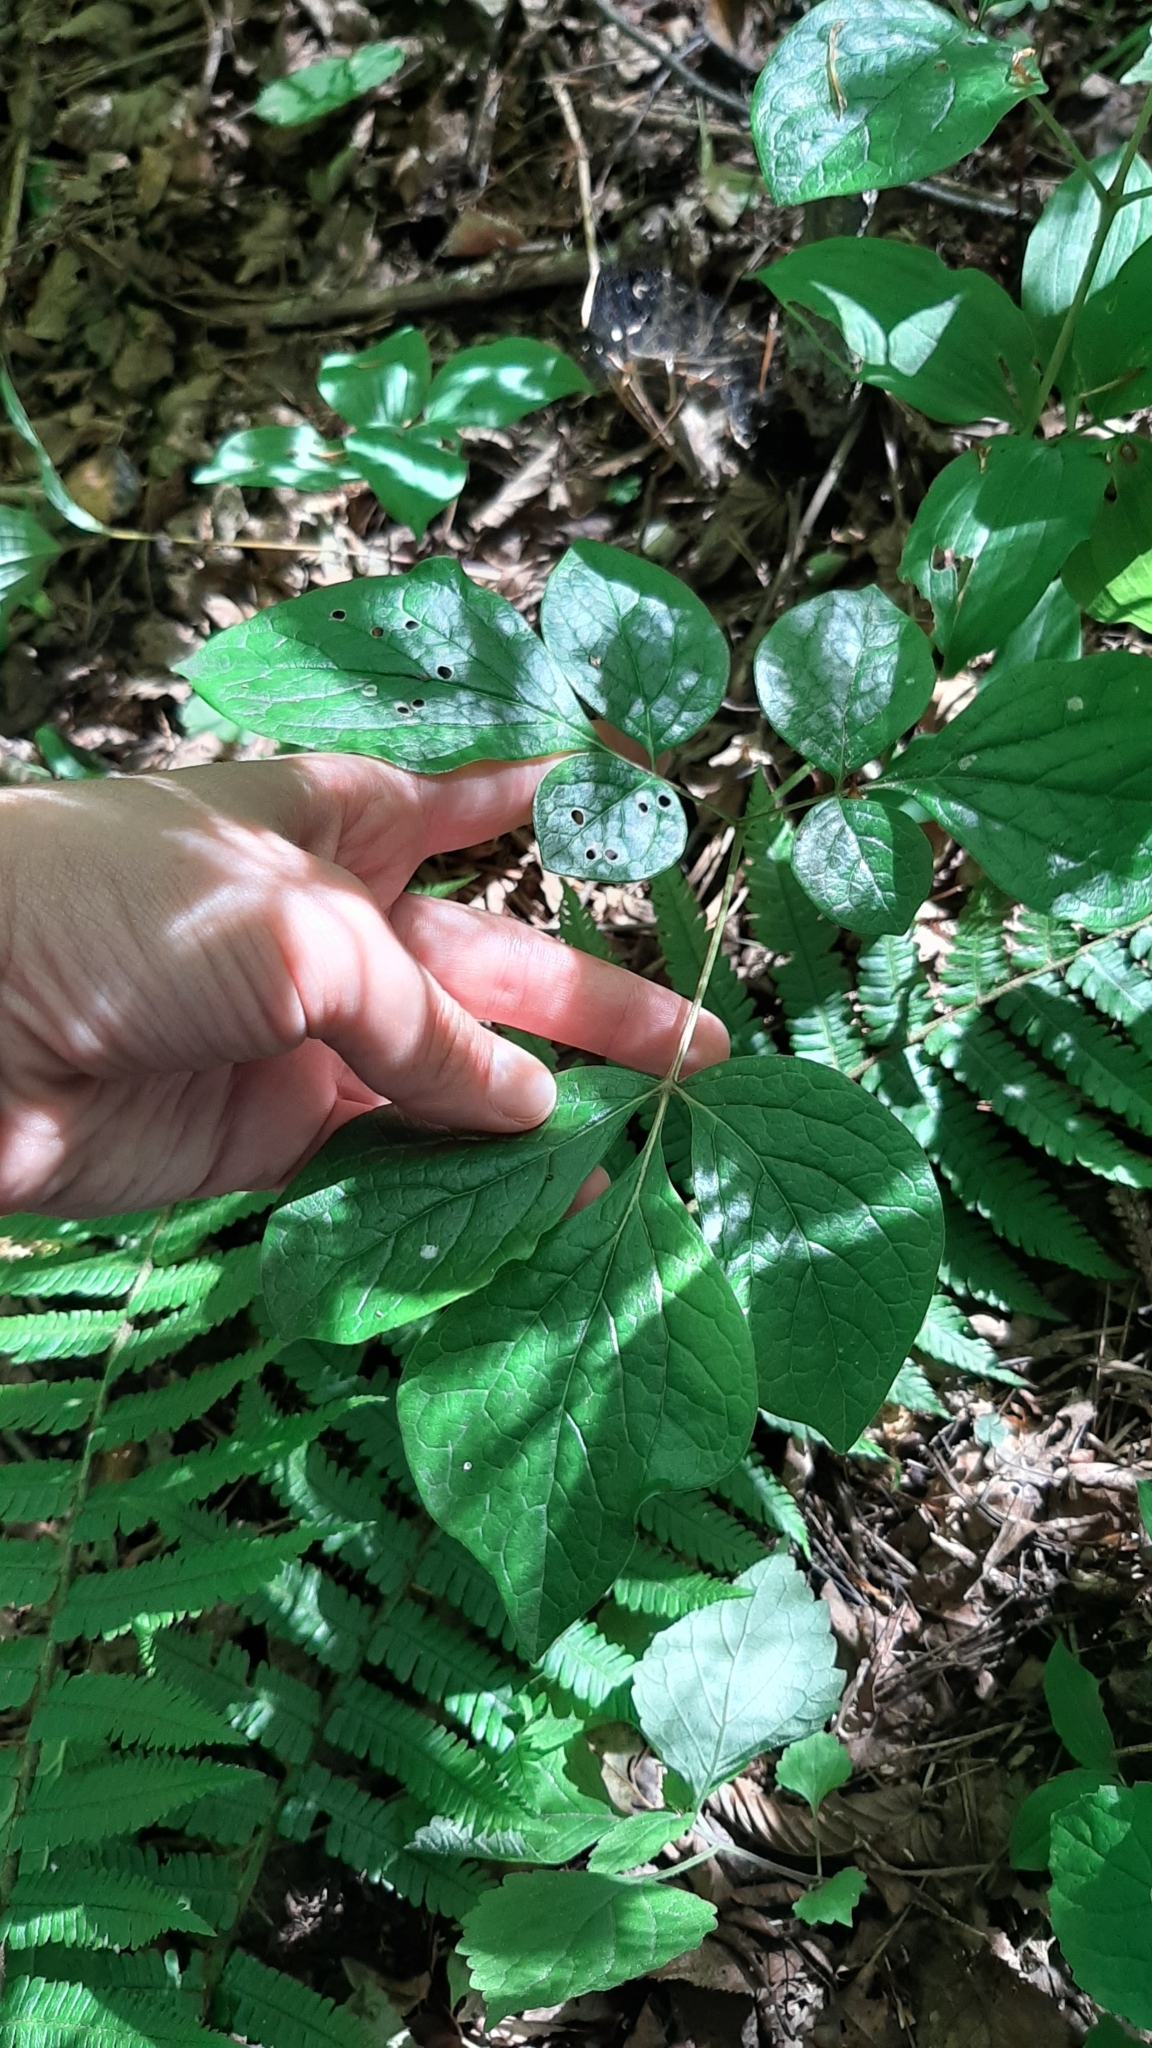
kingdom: Plantae
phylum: Tracheophyta
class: Magnoliopsida
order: Saxifragales
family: Paeoniaceae
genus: Paeonia
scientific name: Paeonia obovata
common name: Chinese peony
